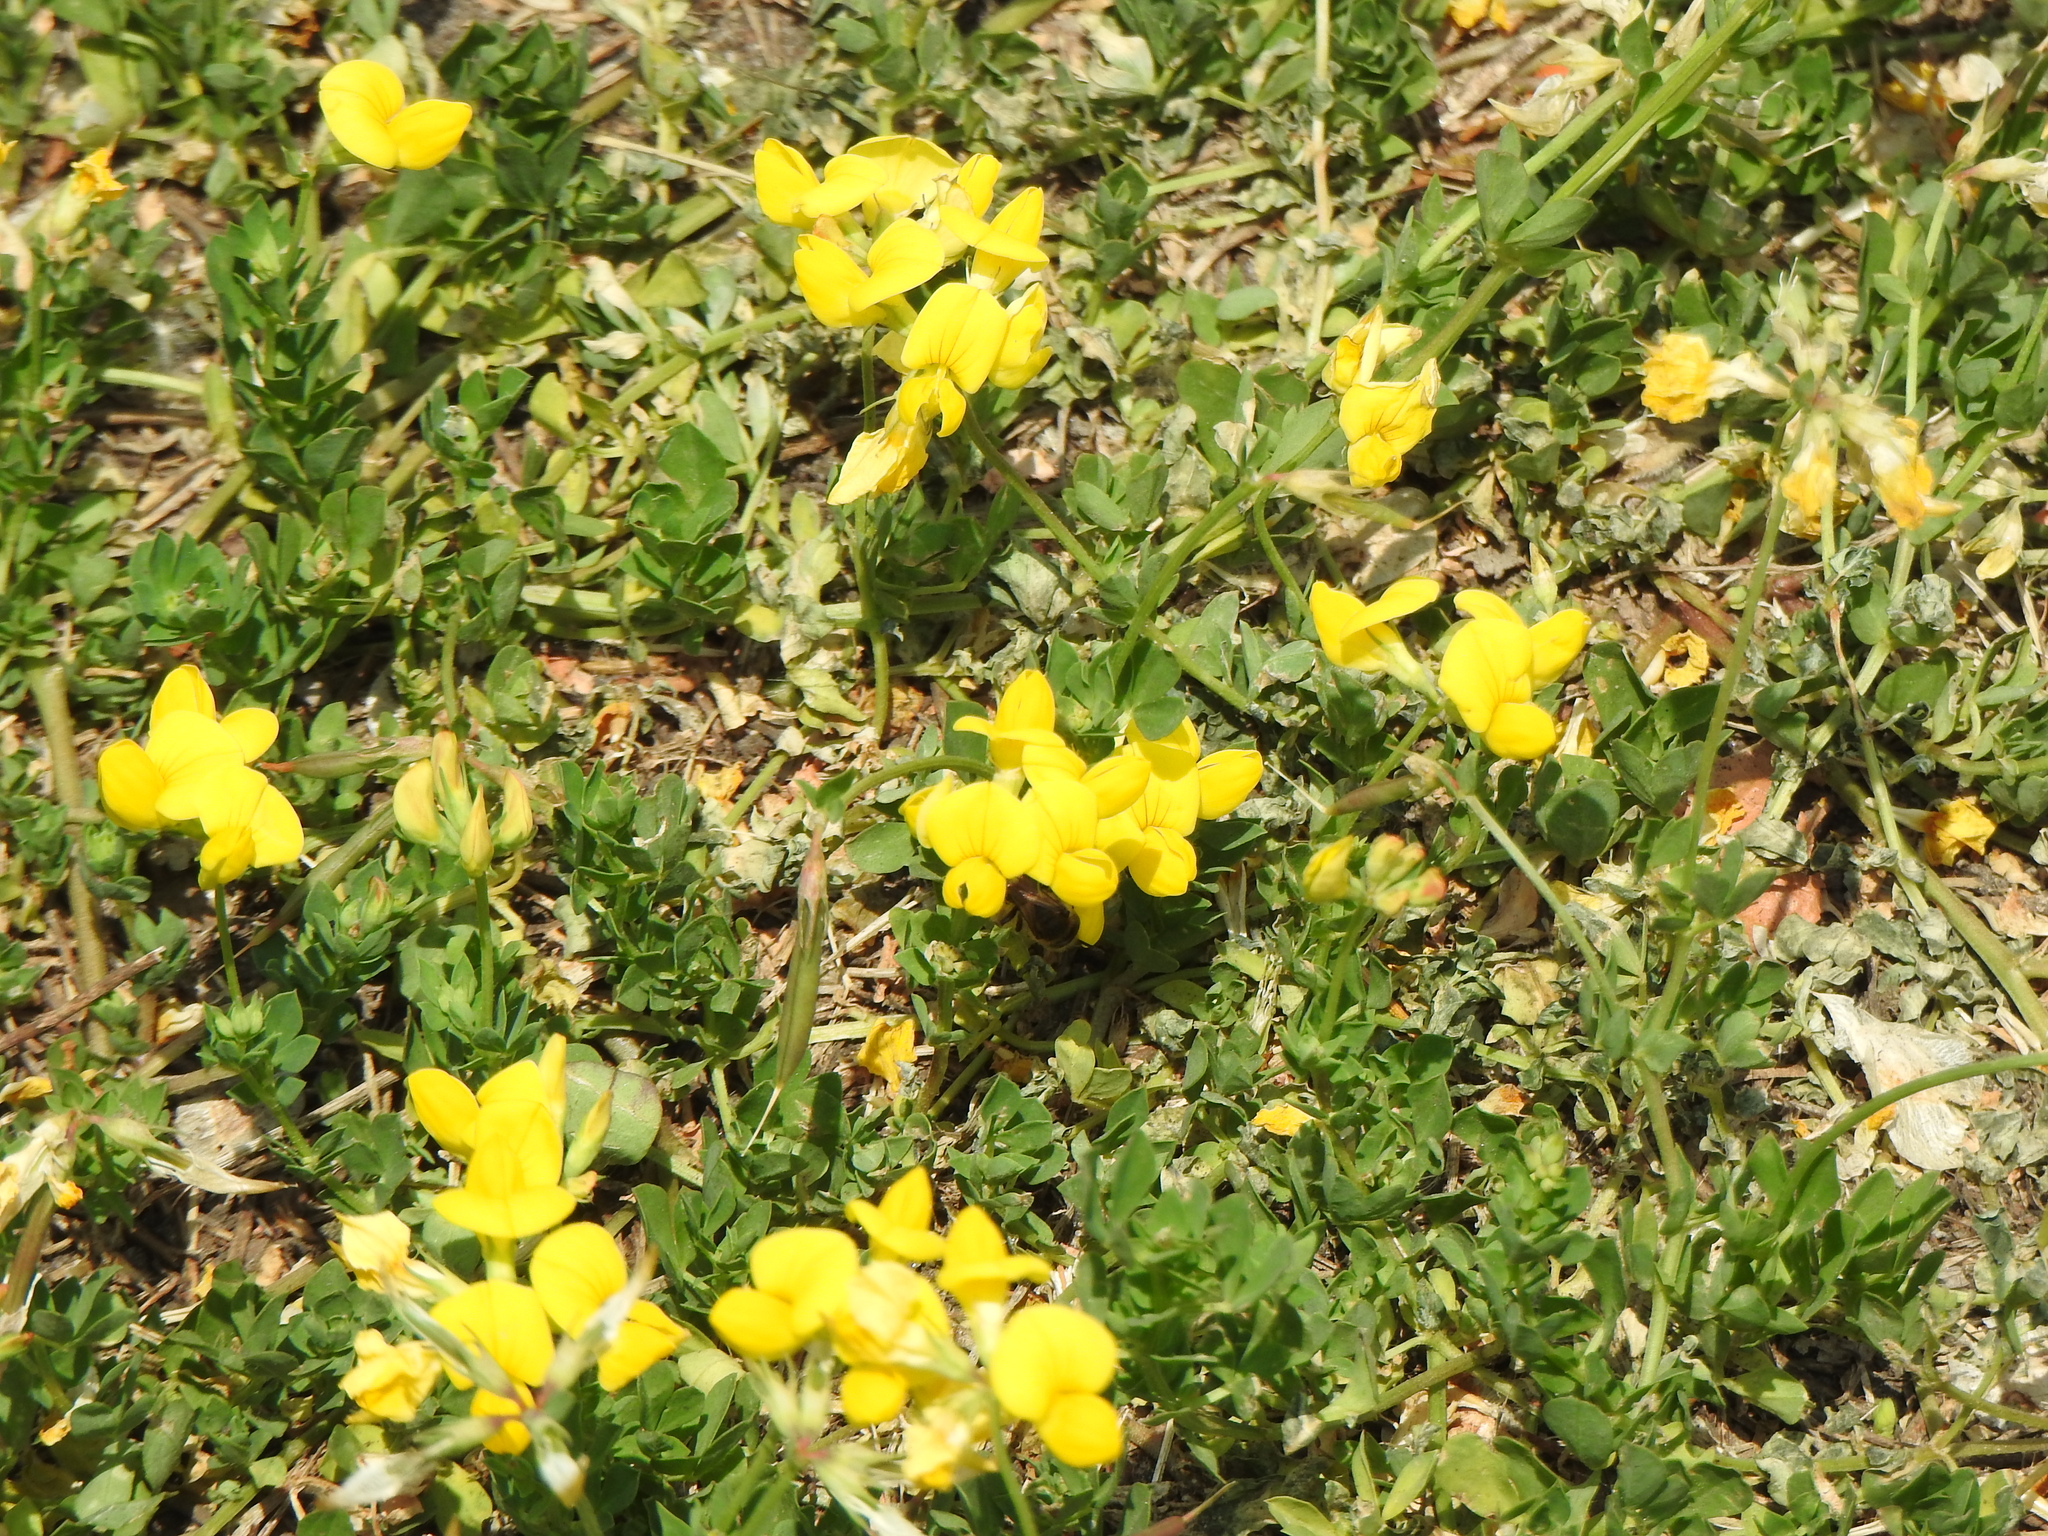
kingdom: Plantae
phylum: Tracheophyta
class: Magnoliopsida
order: Fabales
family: Fabaceae
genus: Lotus
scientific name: Lotus corniculatus
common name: Common bird's-foot-trefoil
